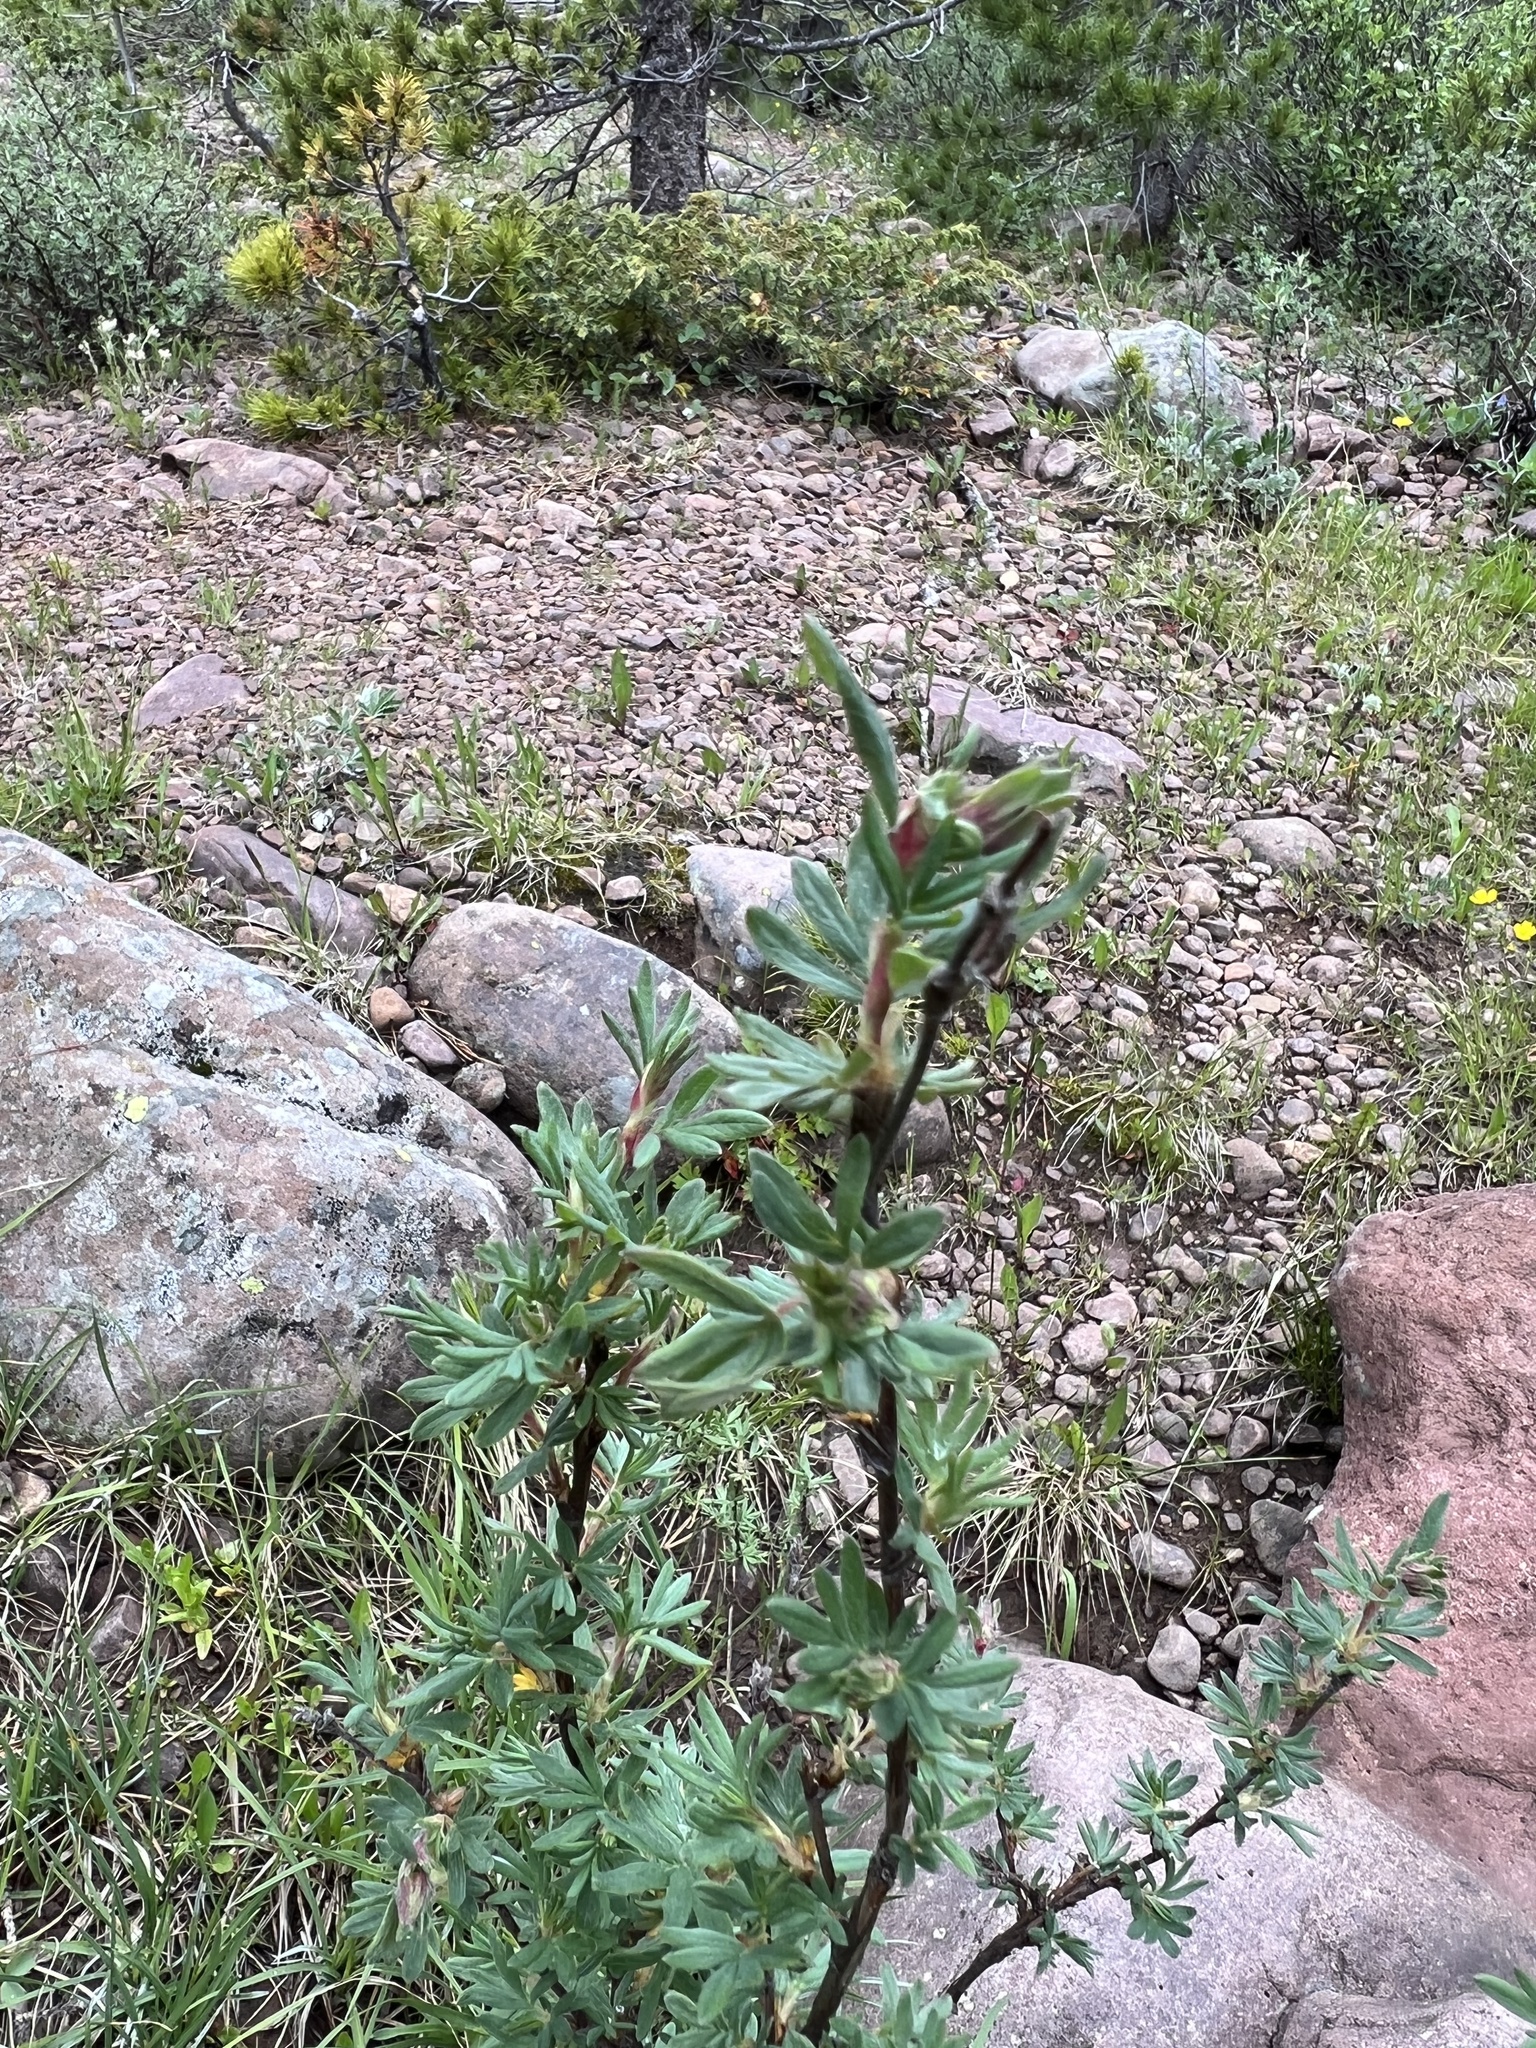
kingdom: Plantae
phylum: Tracheophyta
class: Magnoliopsida
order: Rosales
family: Rosaceae
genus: Dasiphora
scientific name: Dasiphora fruticosa
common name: Shrubby cinquefoil
